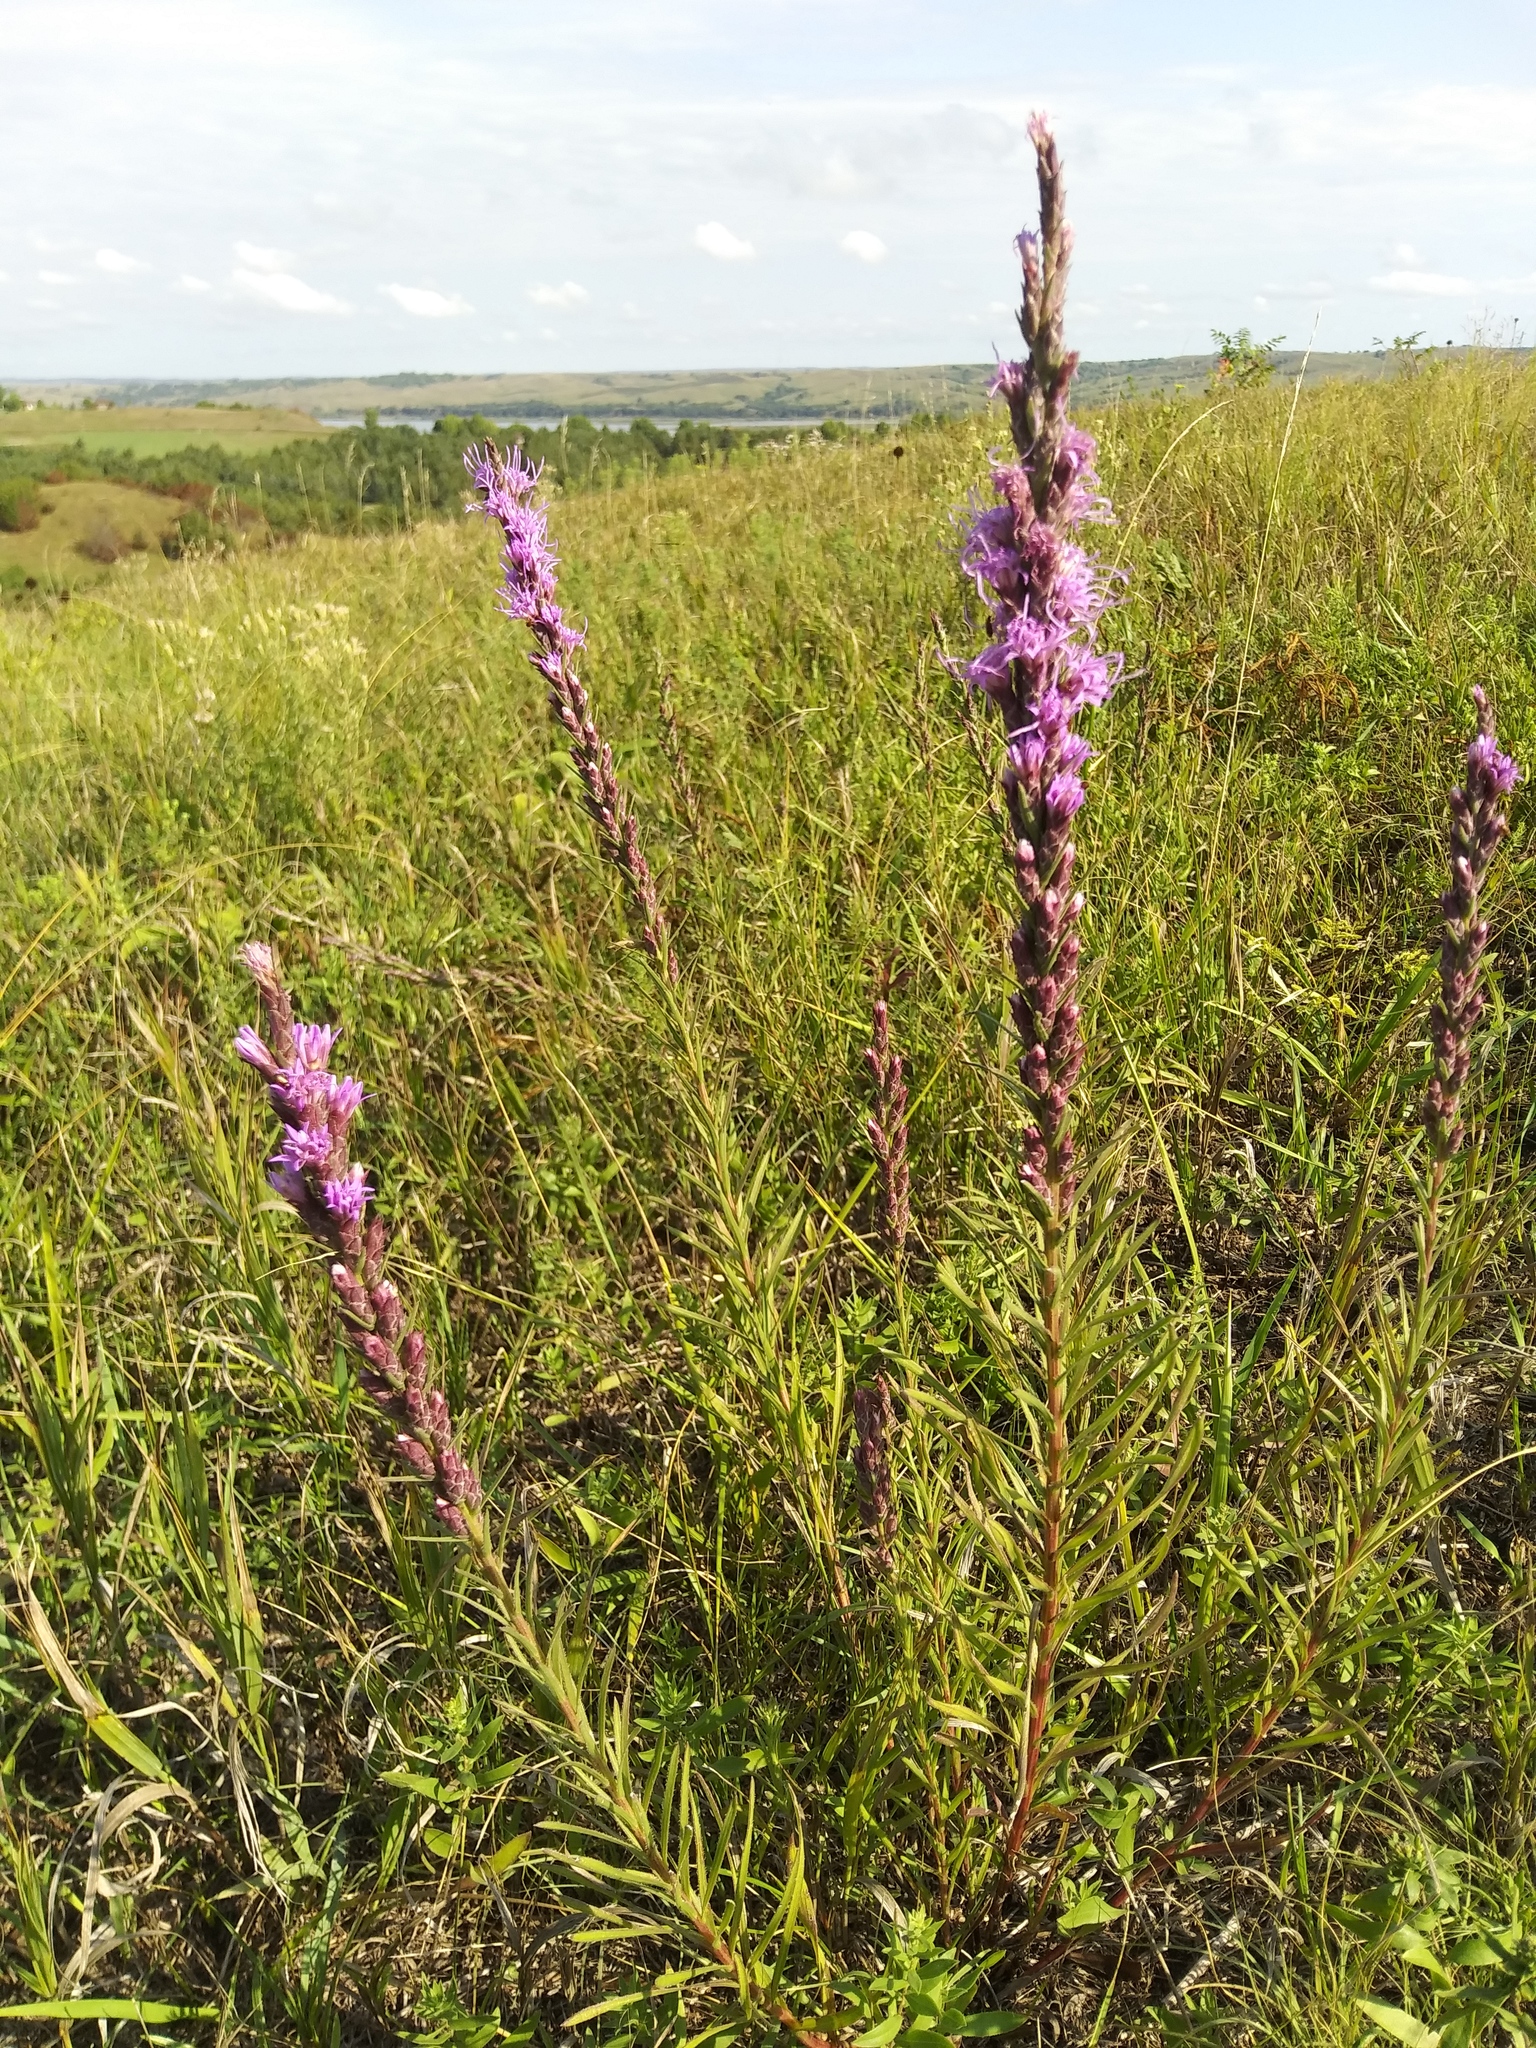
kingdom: Plantae
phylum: Tracheophyta
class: Magnoliopsida
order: Asterales
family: Asteraceae
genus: Liatris
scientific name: Liatris punctata
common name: Dotted gayfeather
